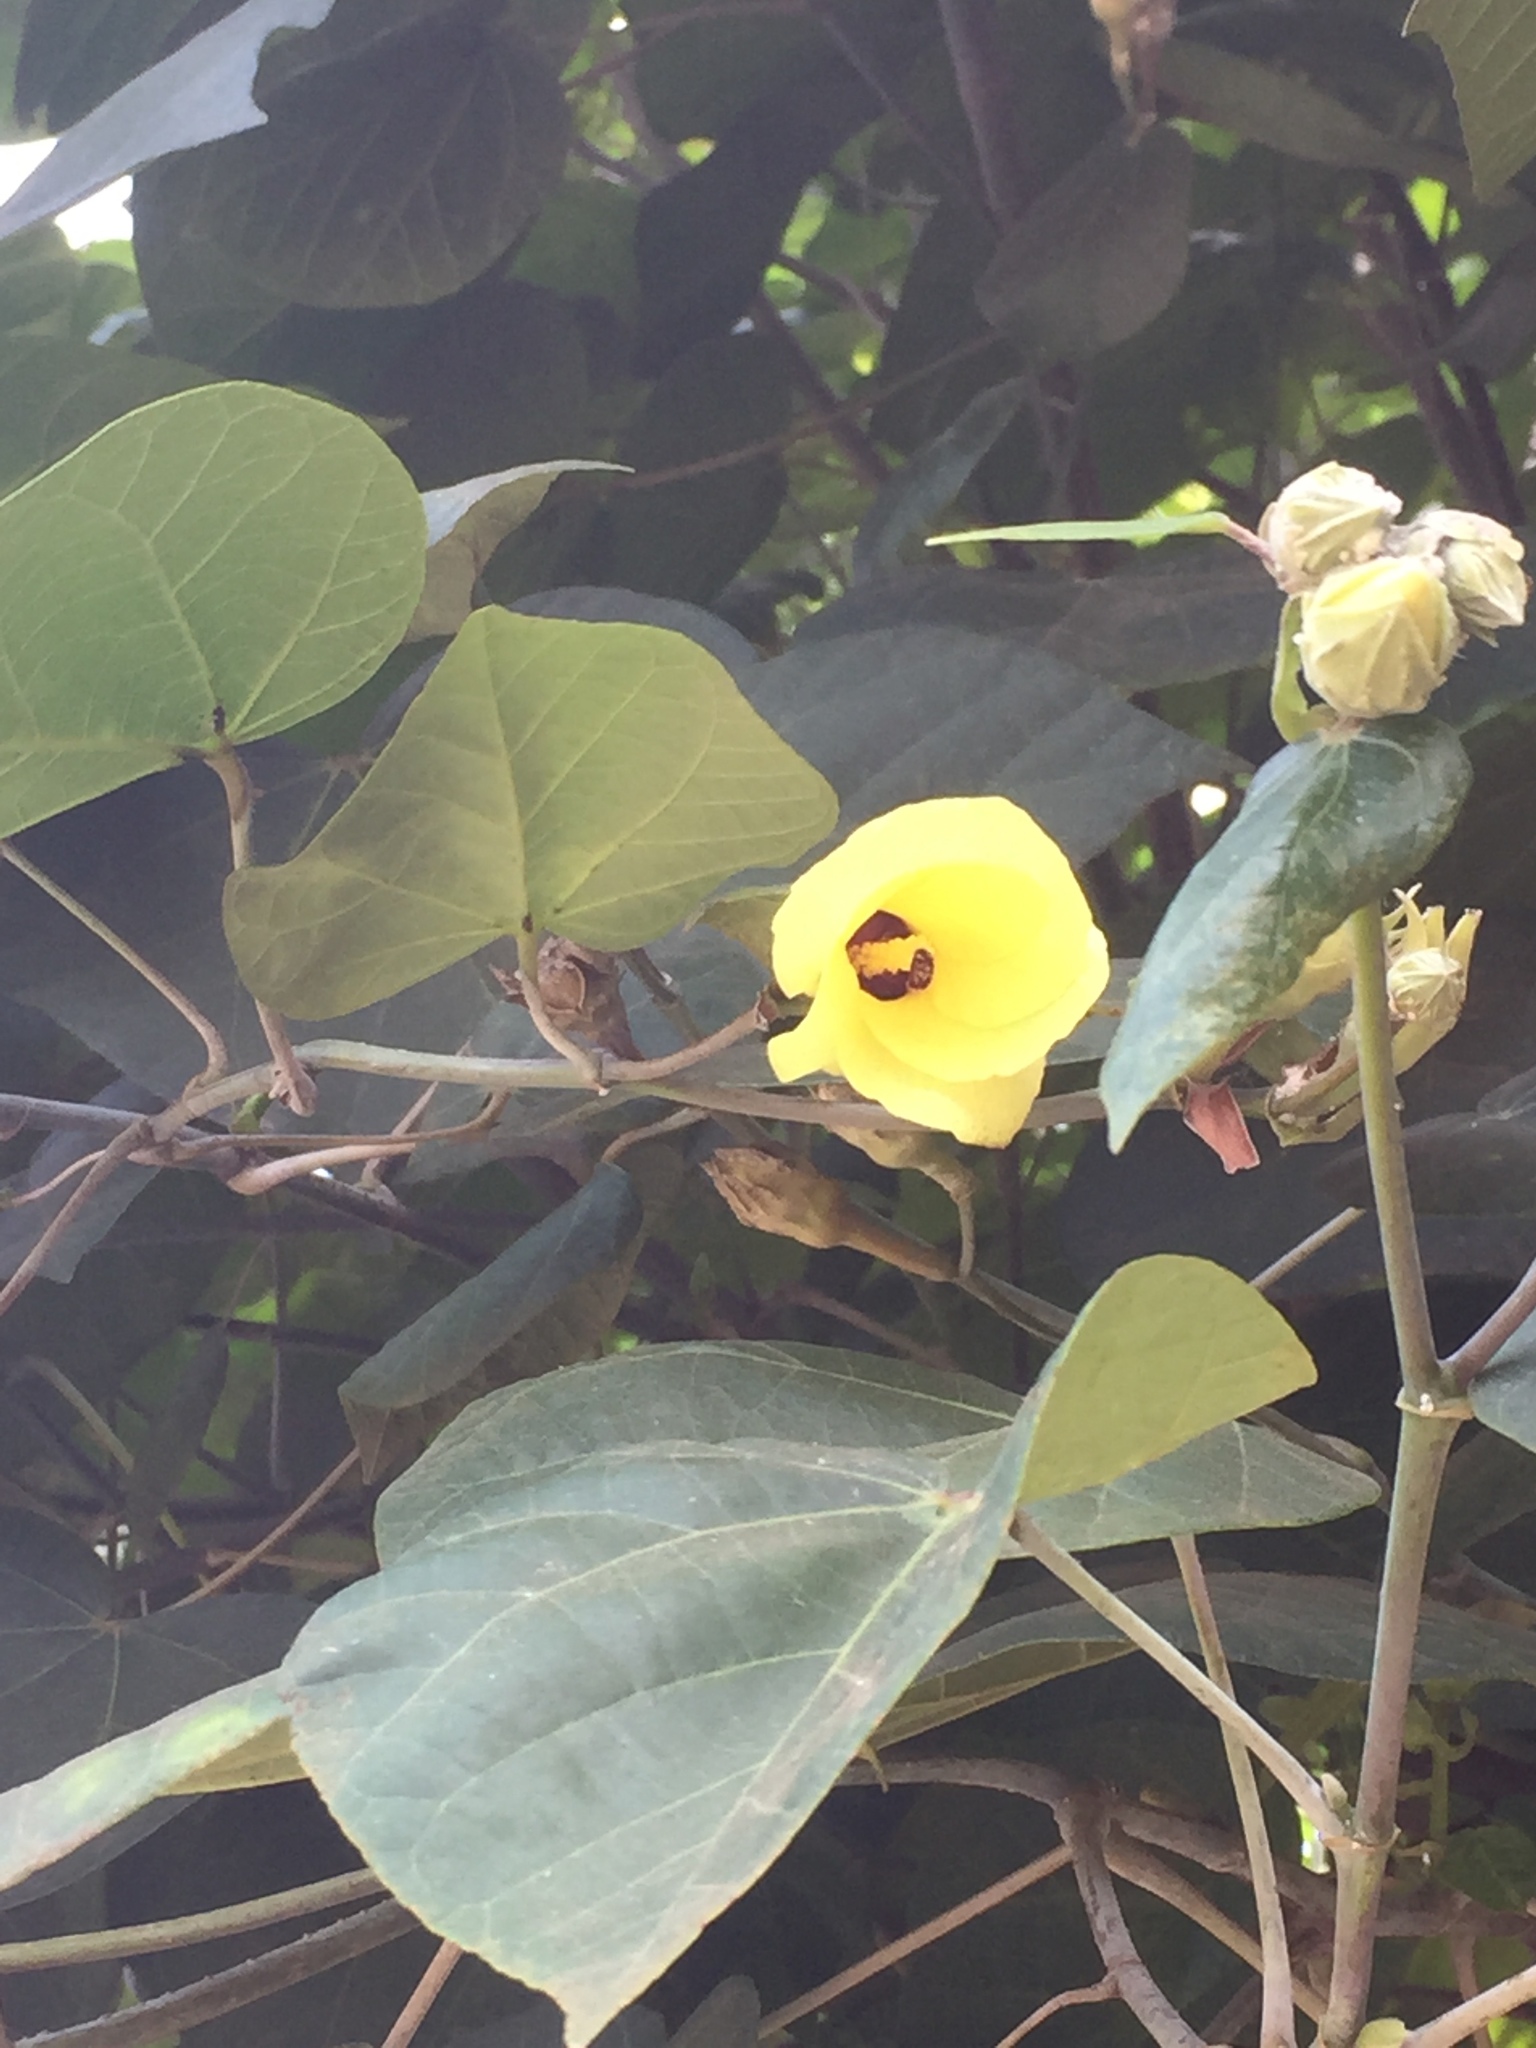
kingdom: Plantae
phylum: Tracheophyta
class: Magnoliopsida
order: Malvales
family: Malvaceae
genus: Talipariti
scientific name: Talipariti tiliaceum
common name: Sea hibiscus
